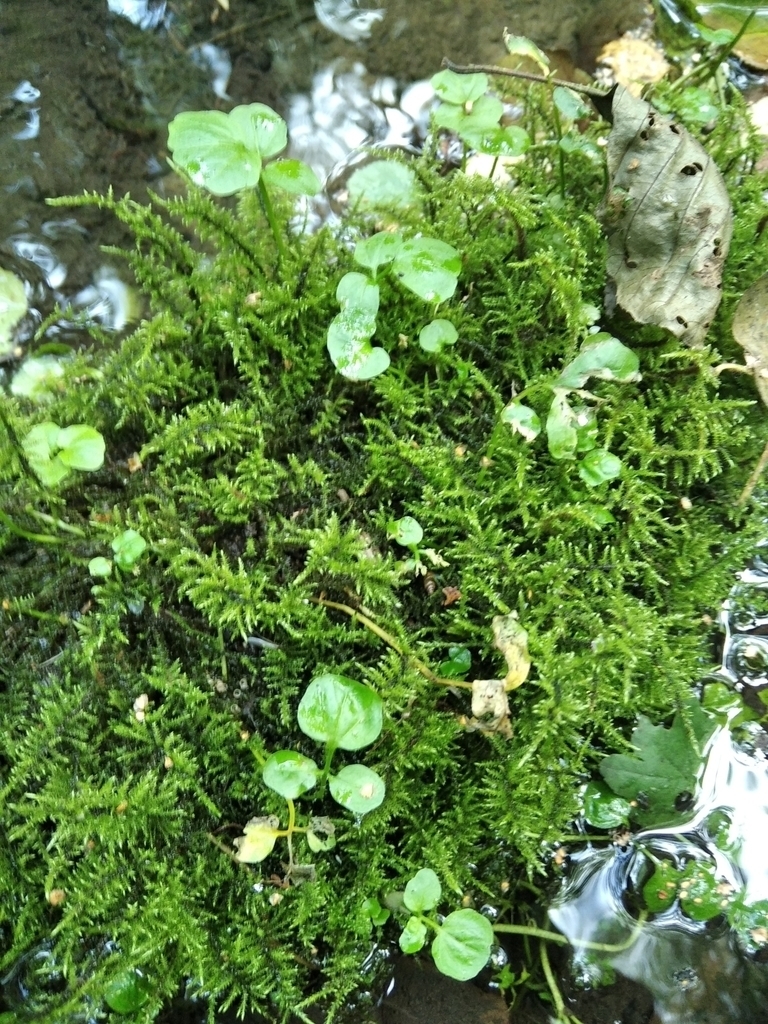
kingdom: Plantae
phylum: Bryophyta
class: Bryopsida
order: Hypnales
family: Amblystegiaceae
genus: Cratoneuron
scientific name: Cratoneuron filicinum
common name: Fern-leaved hook moss
